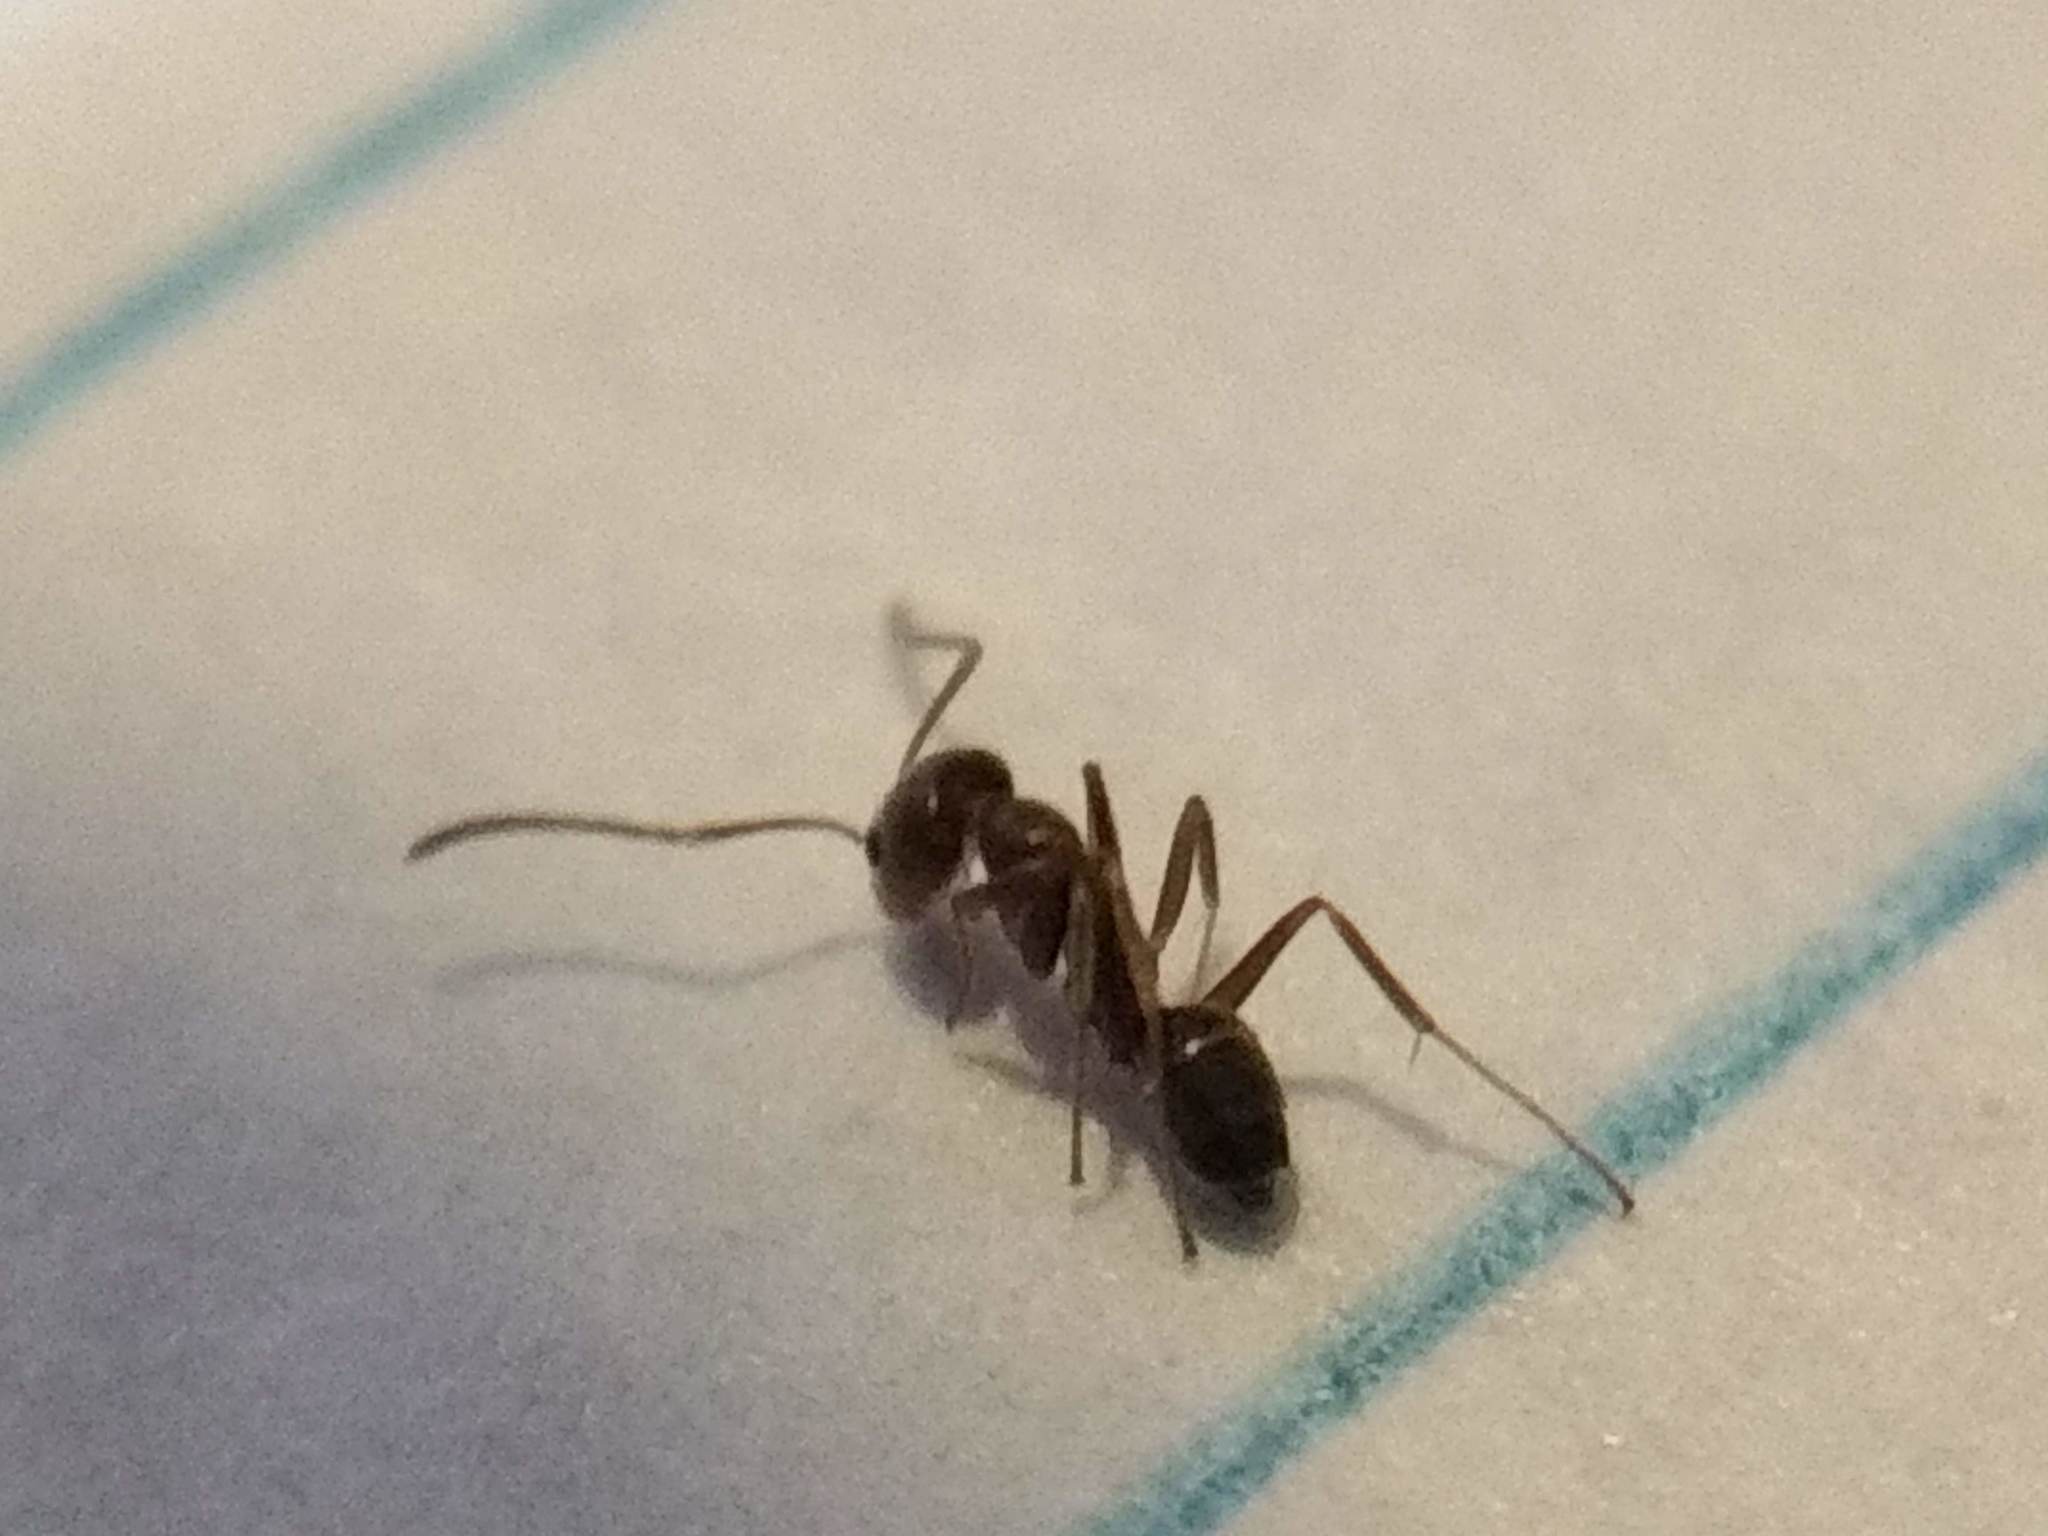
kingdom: Animalia
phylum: Arthropoda
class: Insecta
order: Hymenoptera
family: Formicidae
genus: Linepithema
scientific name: Linepithema humile
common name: Argentine ant
